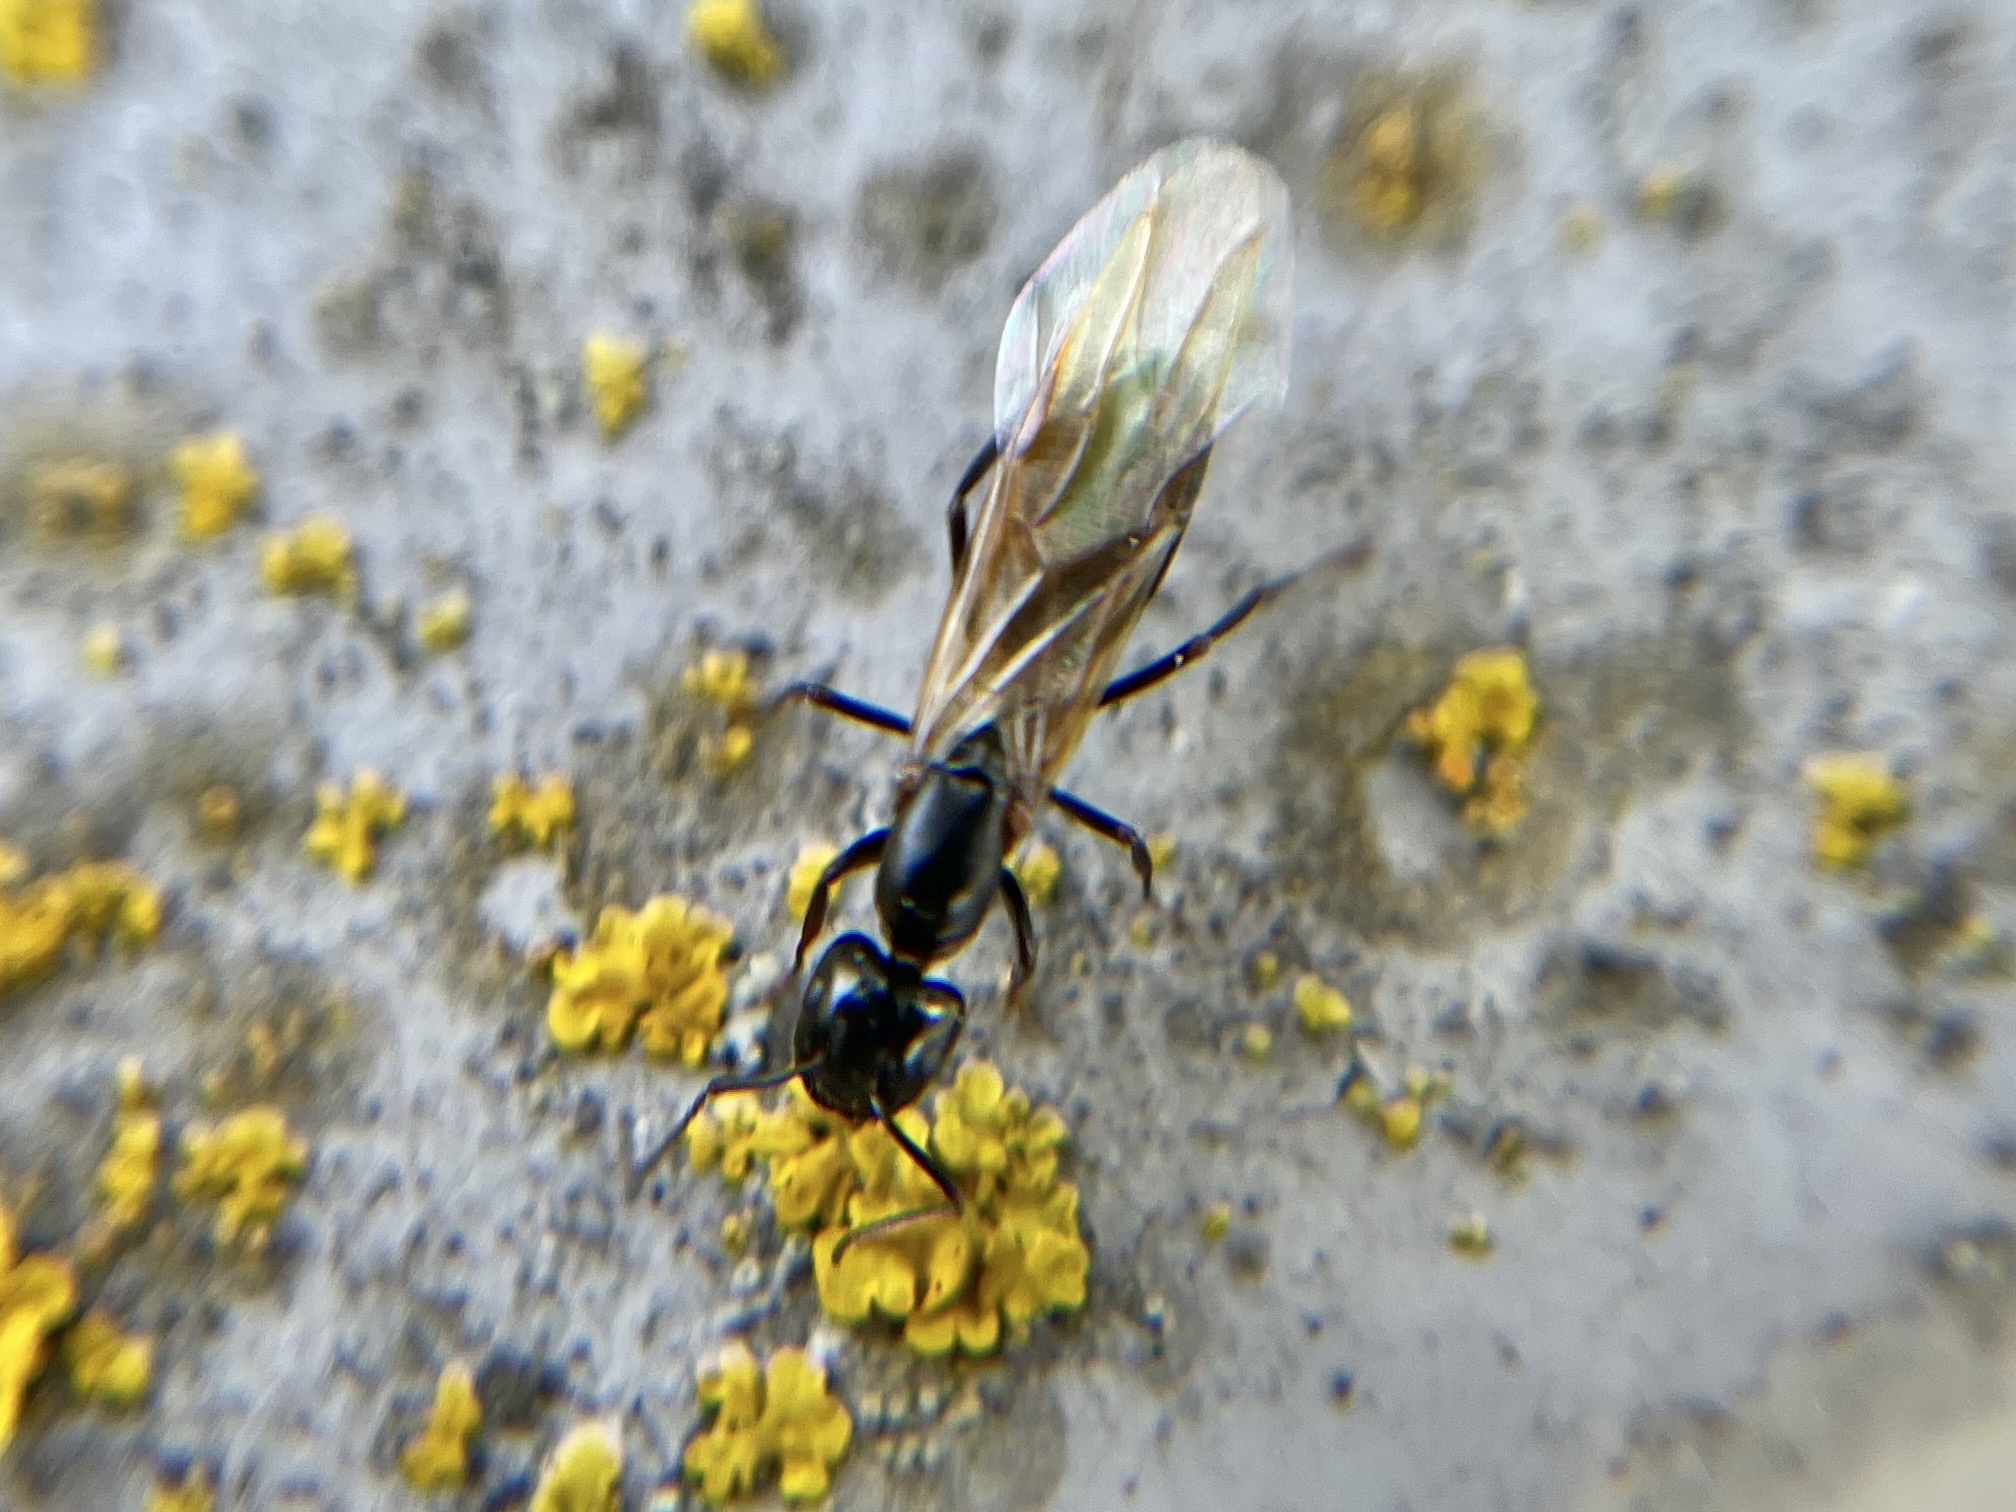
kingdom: Animalia
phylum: Arthropoda
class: Insecta
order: Hymenoptera
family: Formicidae
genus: Camponotus
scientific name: Camponotus fallax
